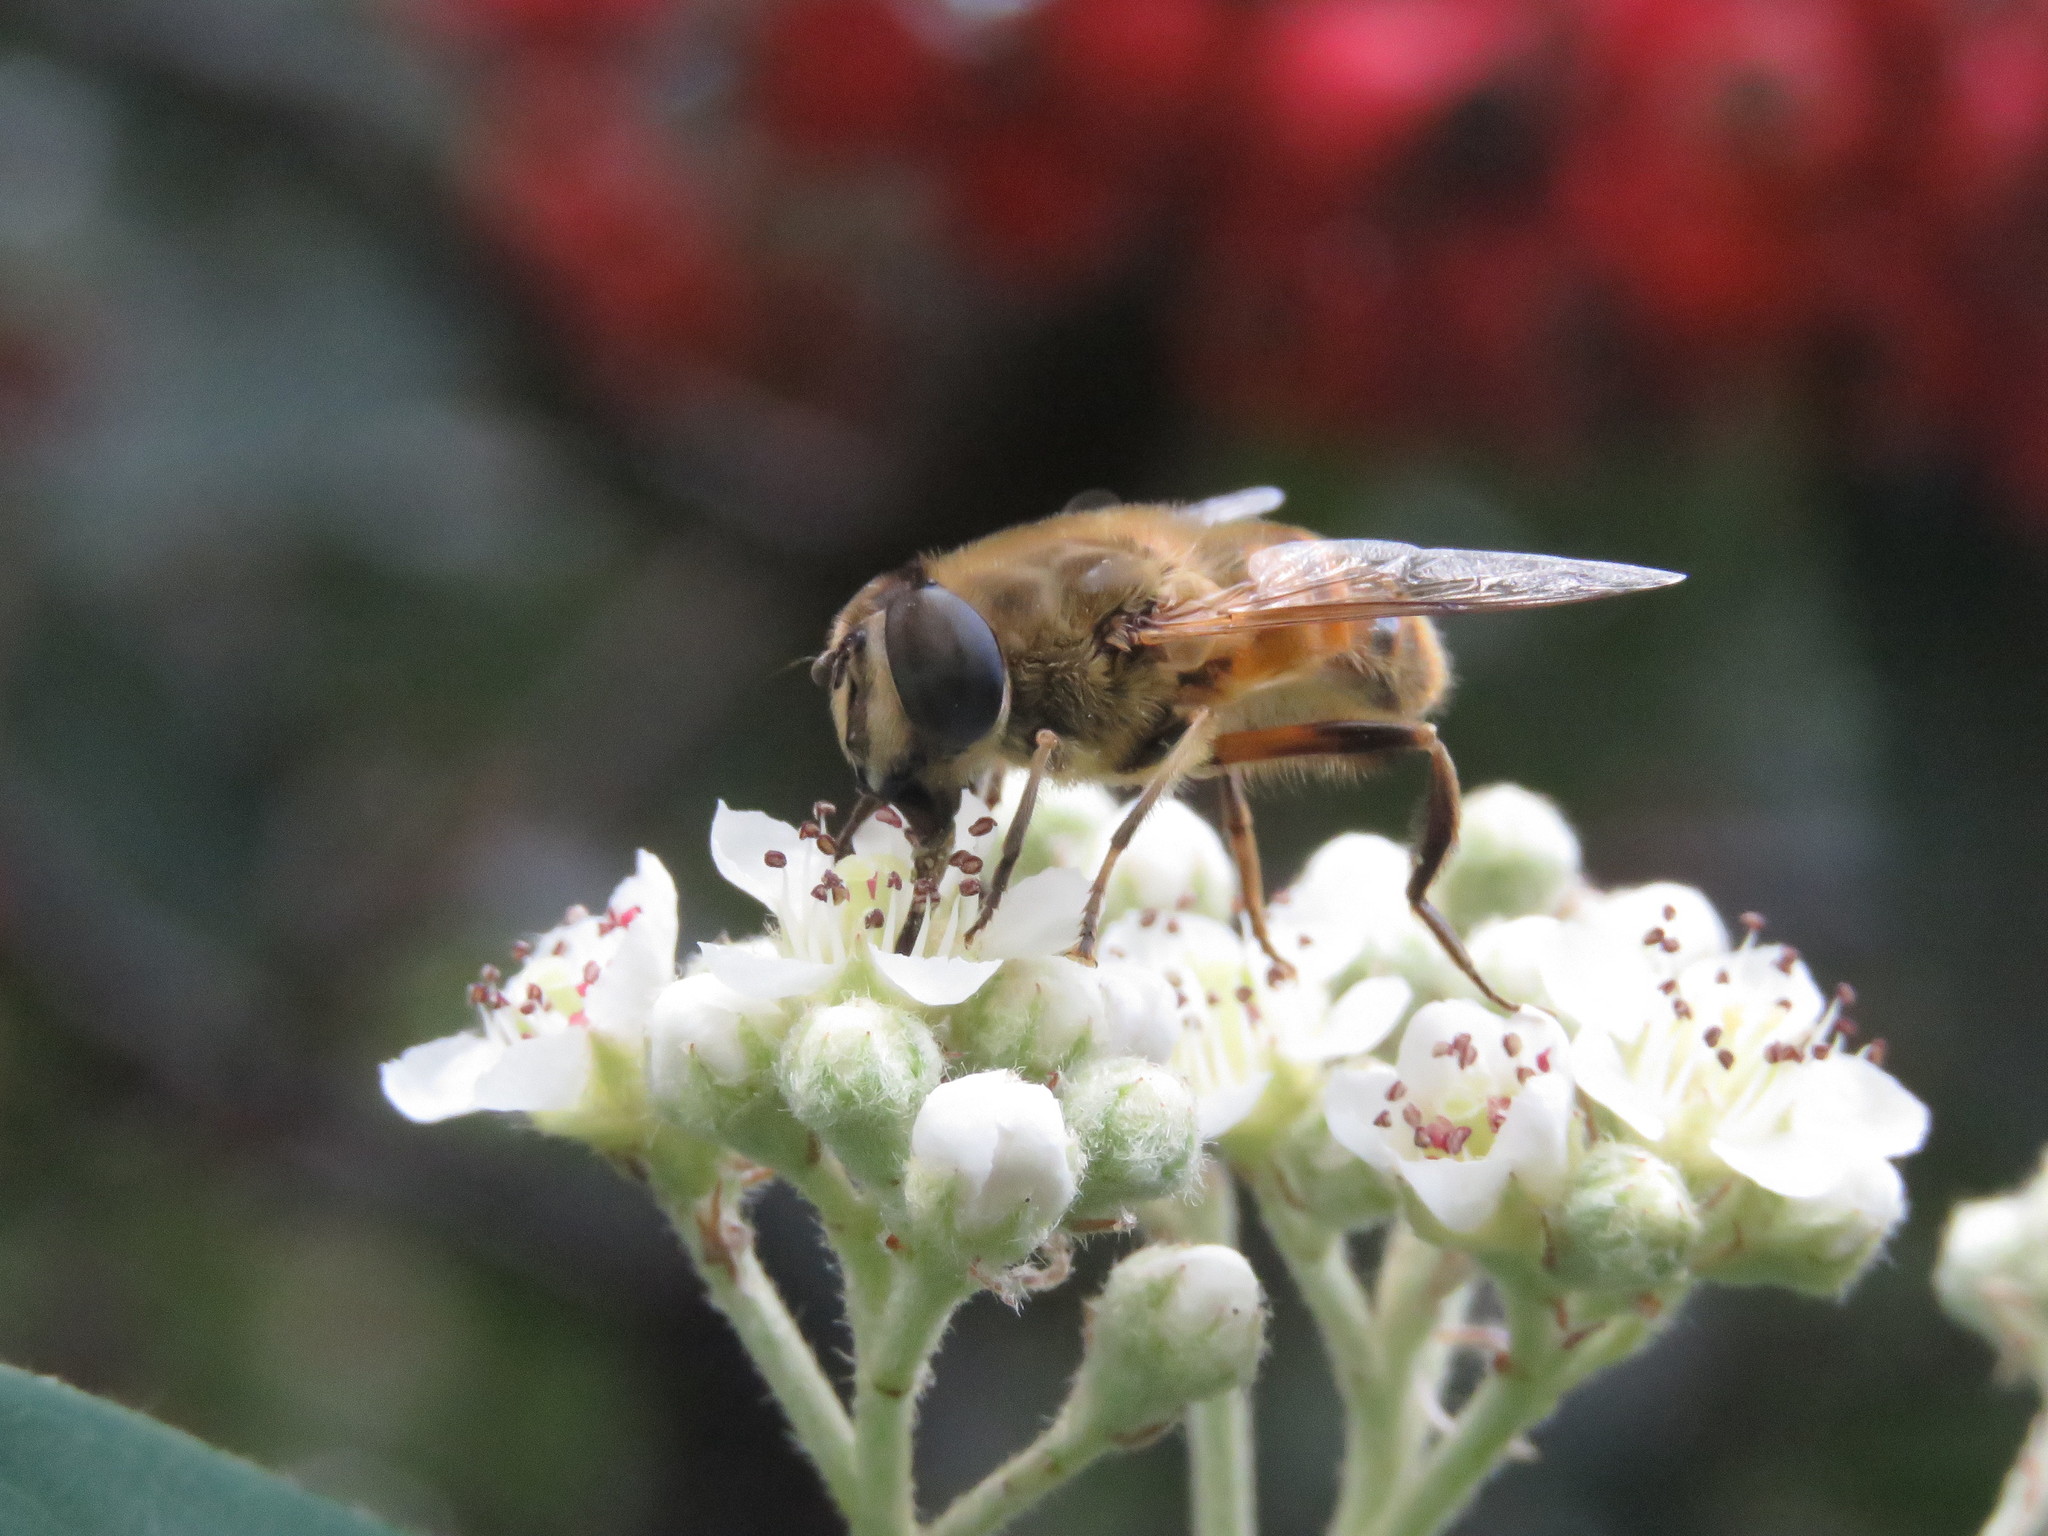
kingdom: Animalia
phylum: Arthropoda
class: Insecta
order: Diptera
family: Syrphidae
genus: Eristalis
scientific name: Eristalis tenax
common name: Drone fly
